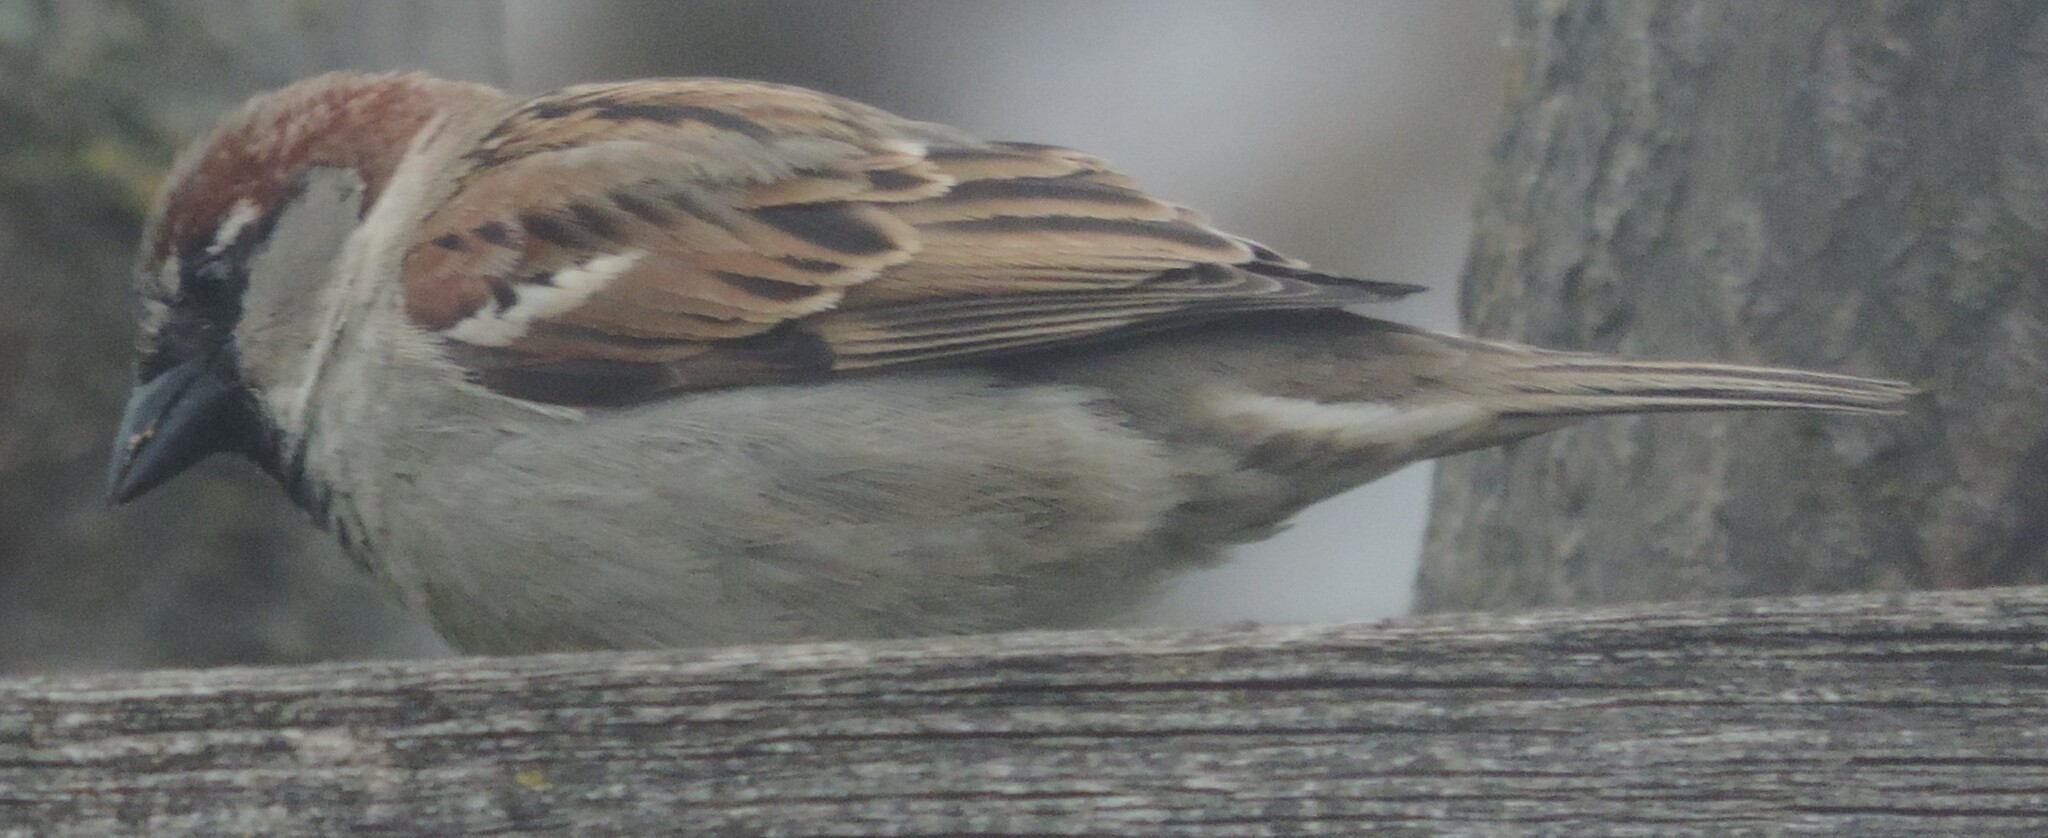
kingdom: Animalia
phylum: Chordata
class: Aves
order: Passeriformes
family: Passeridae
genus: Passer
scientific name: Passer domesticus
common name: House sparrow
